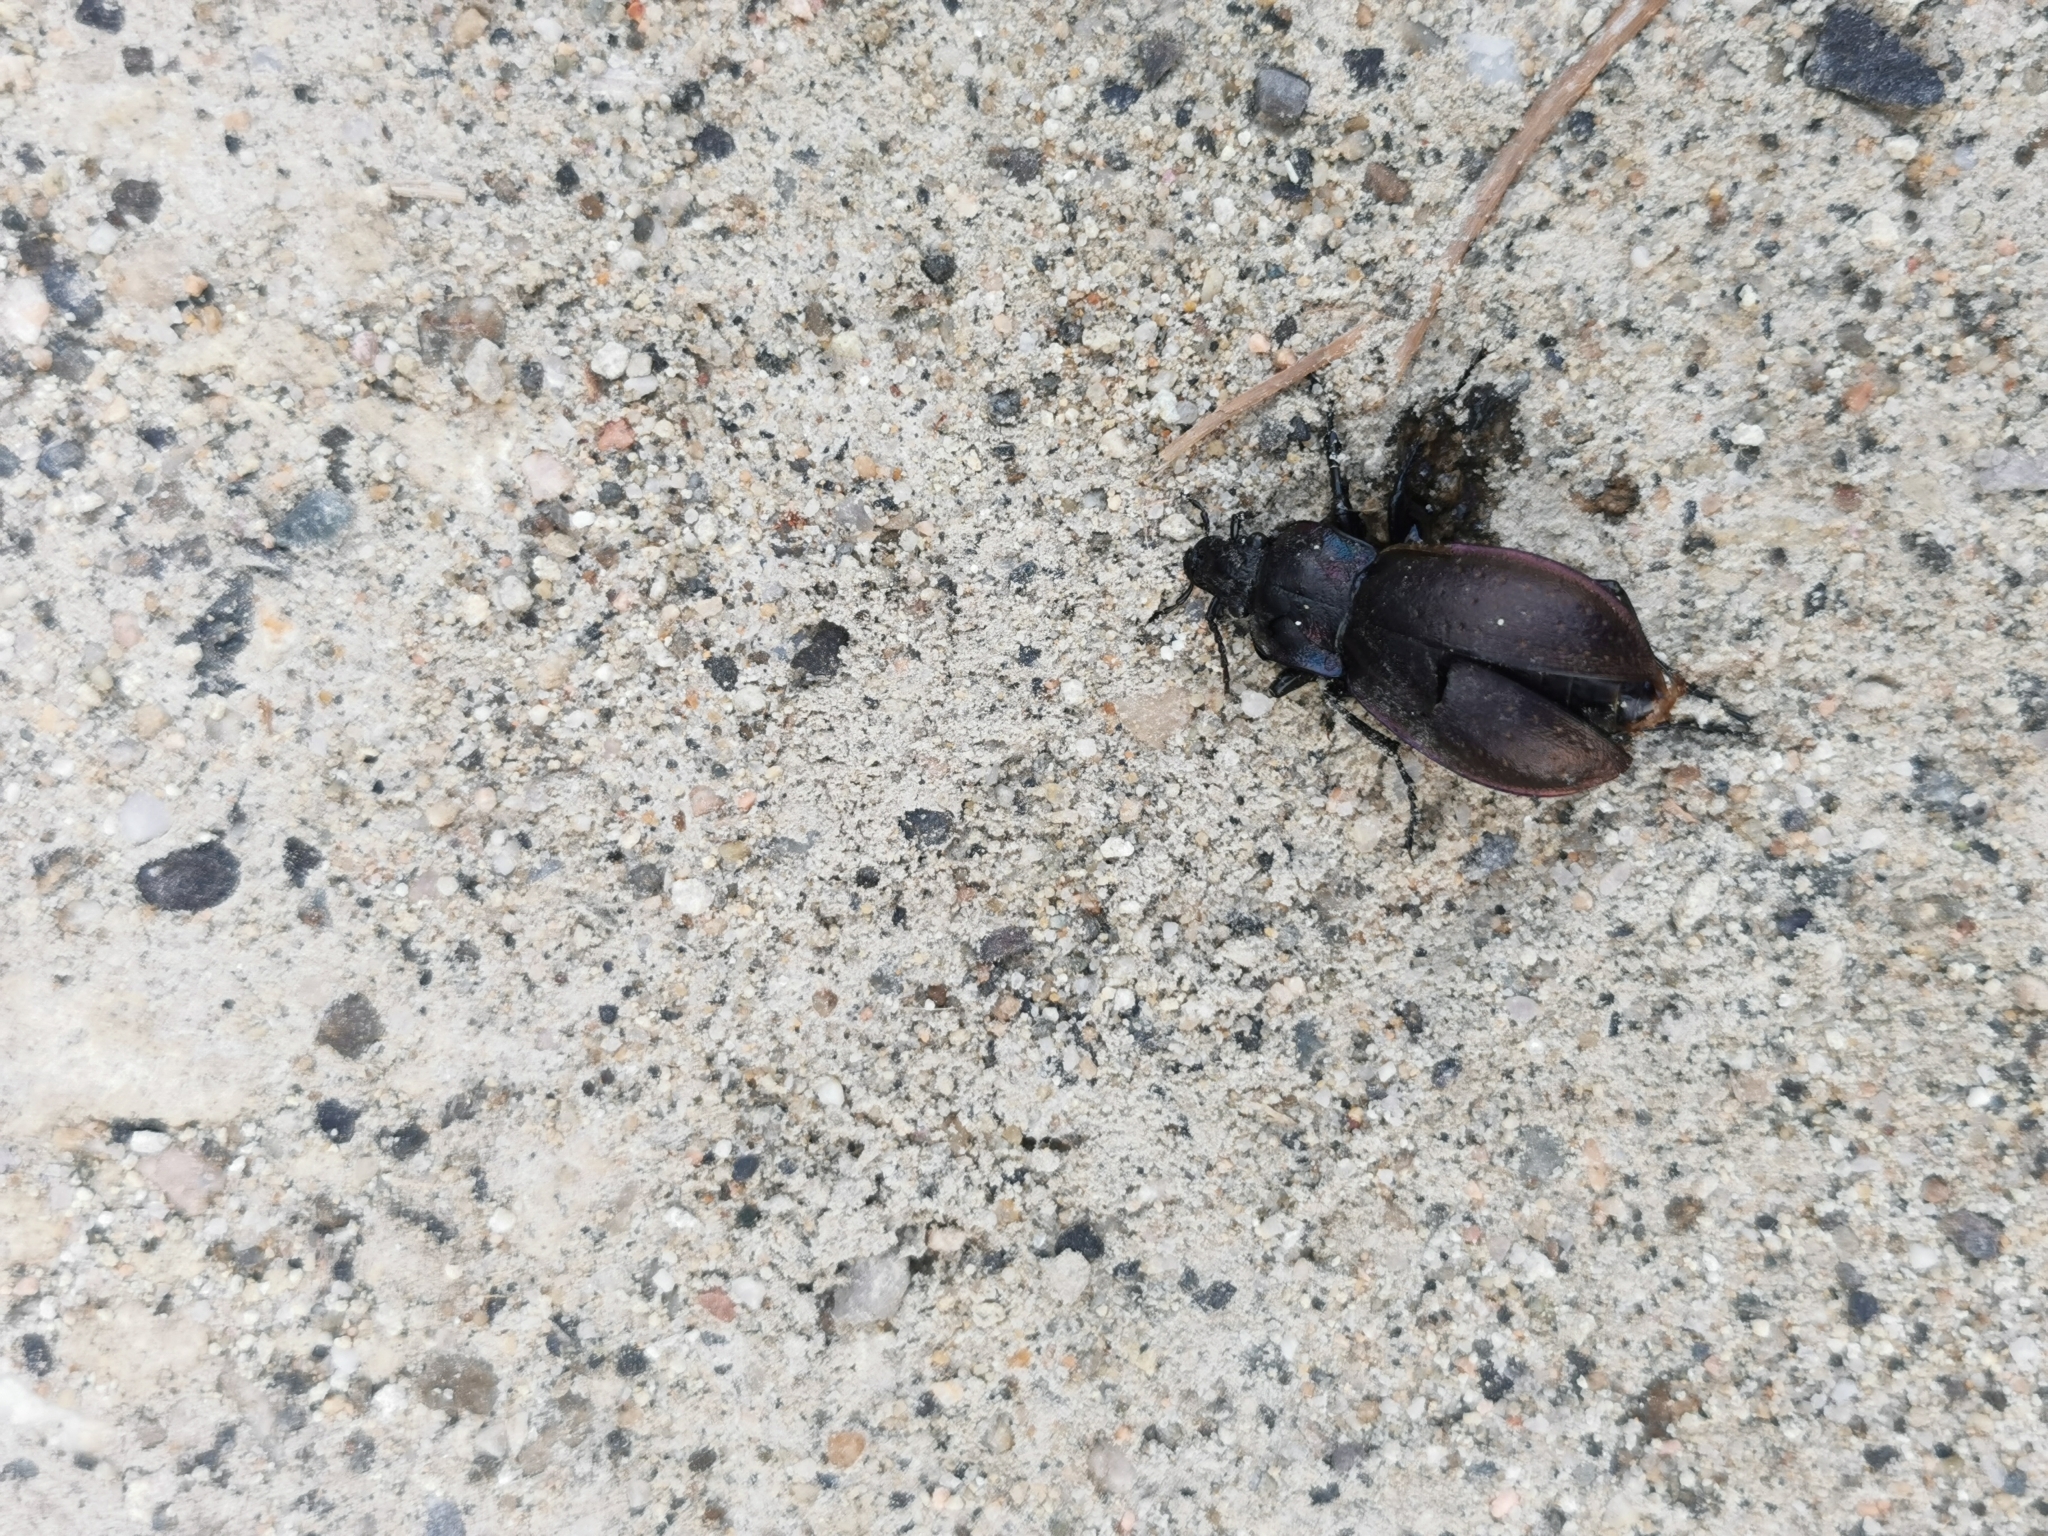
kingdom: Animalia
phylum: Arthropoda
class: Insecta
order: Coleoptera
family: Carabidae
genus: Carabus
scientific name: Carabus nemoralis
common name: European ground beetle
